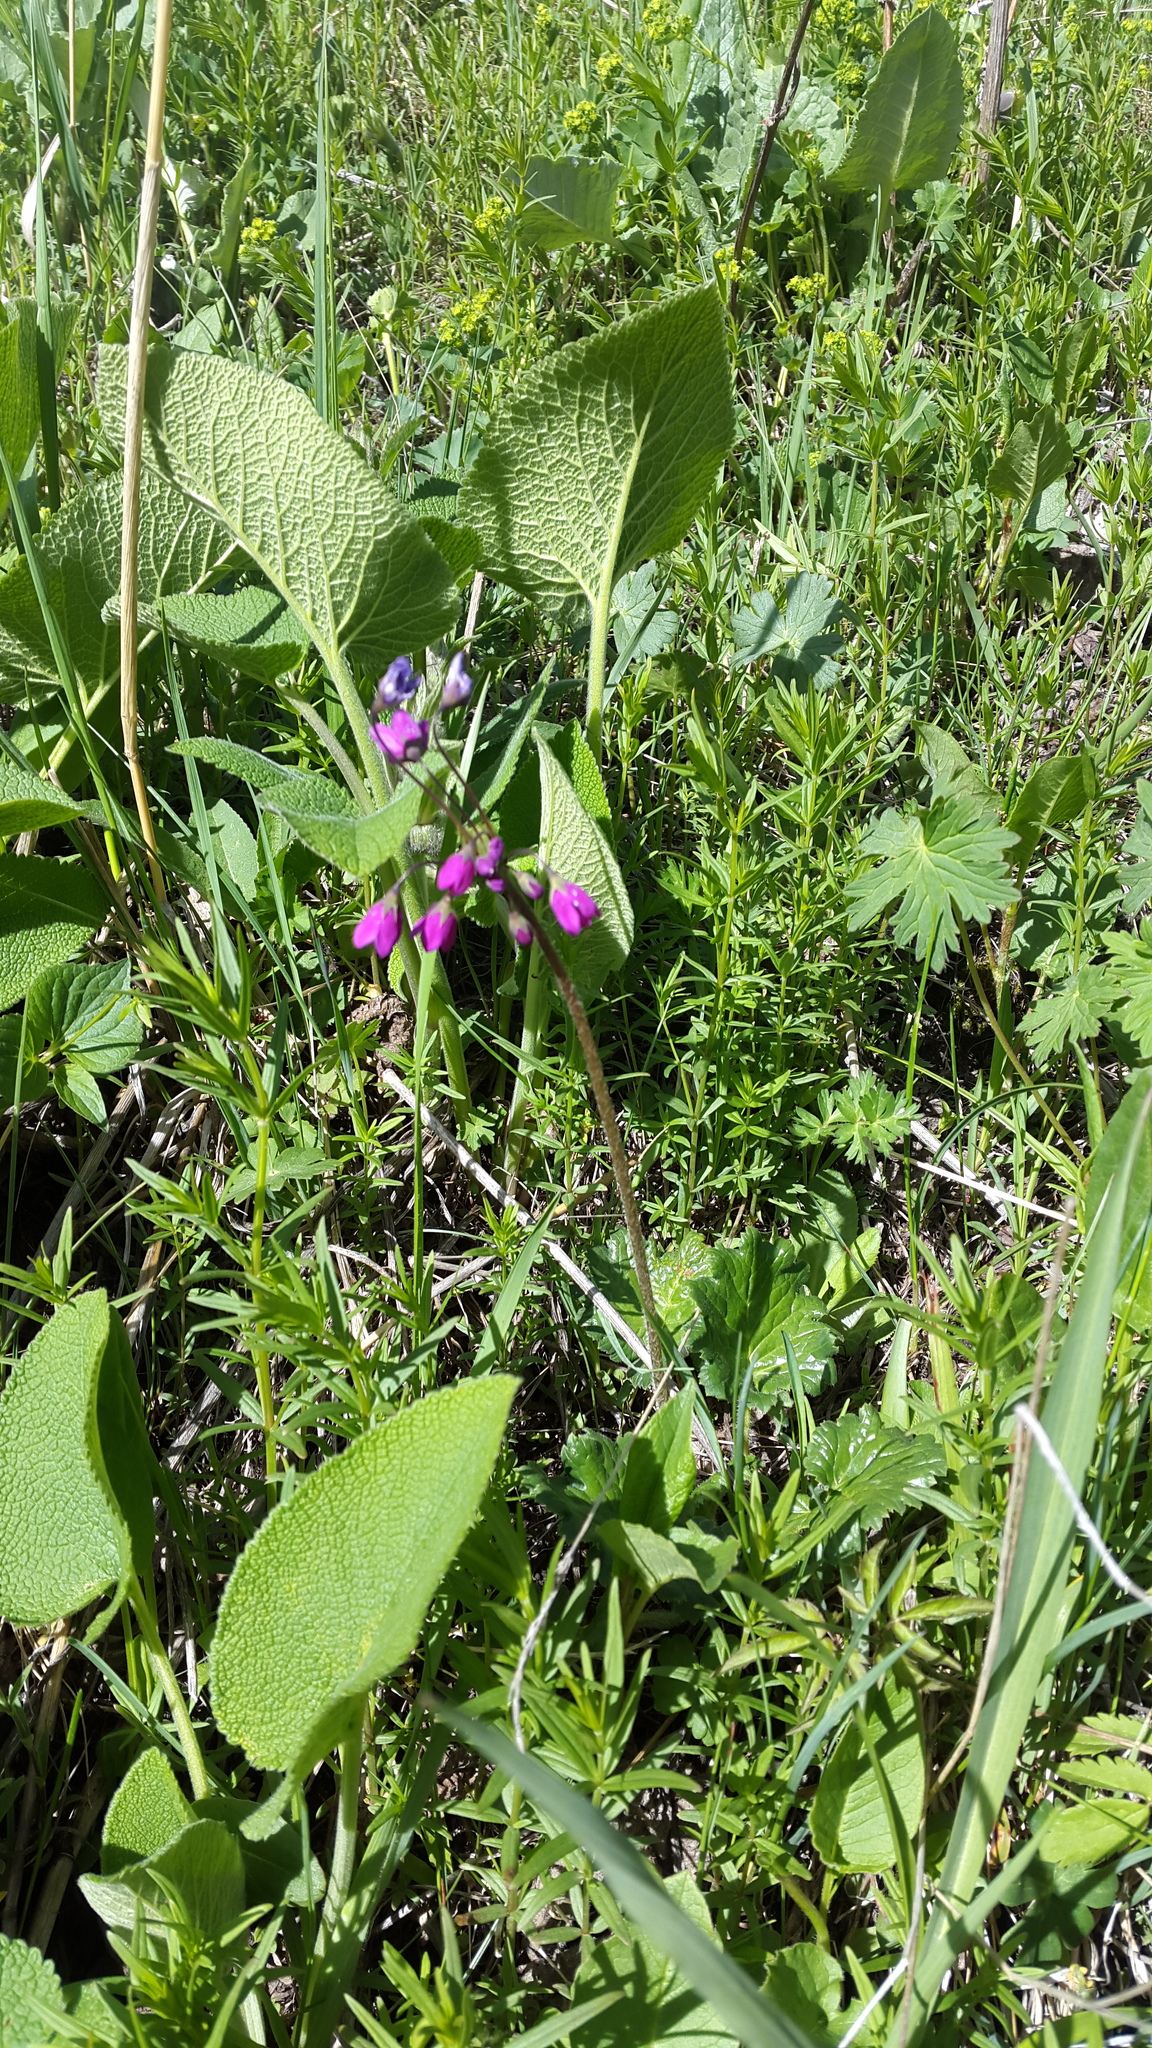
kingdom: Plantae
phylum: Tracheophyta
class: Magnoliopsida
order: Ericales
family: Primulaceae
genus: Primula
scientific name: Primula matthioli
